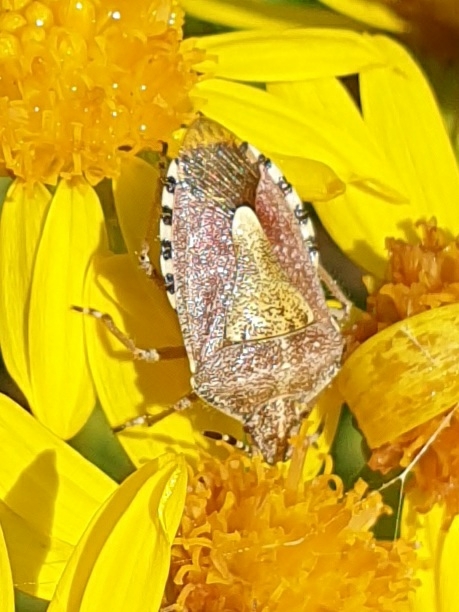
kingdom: Animalia
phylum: Arthropoda
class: Insecta
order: Hemiptera
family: Pentatomidae
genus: Dolycoris
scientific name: Dolycoris baccarum
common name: Sloe bug
